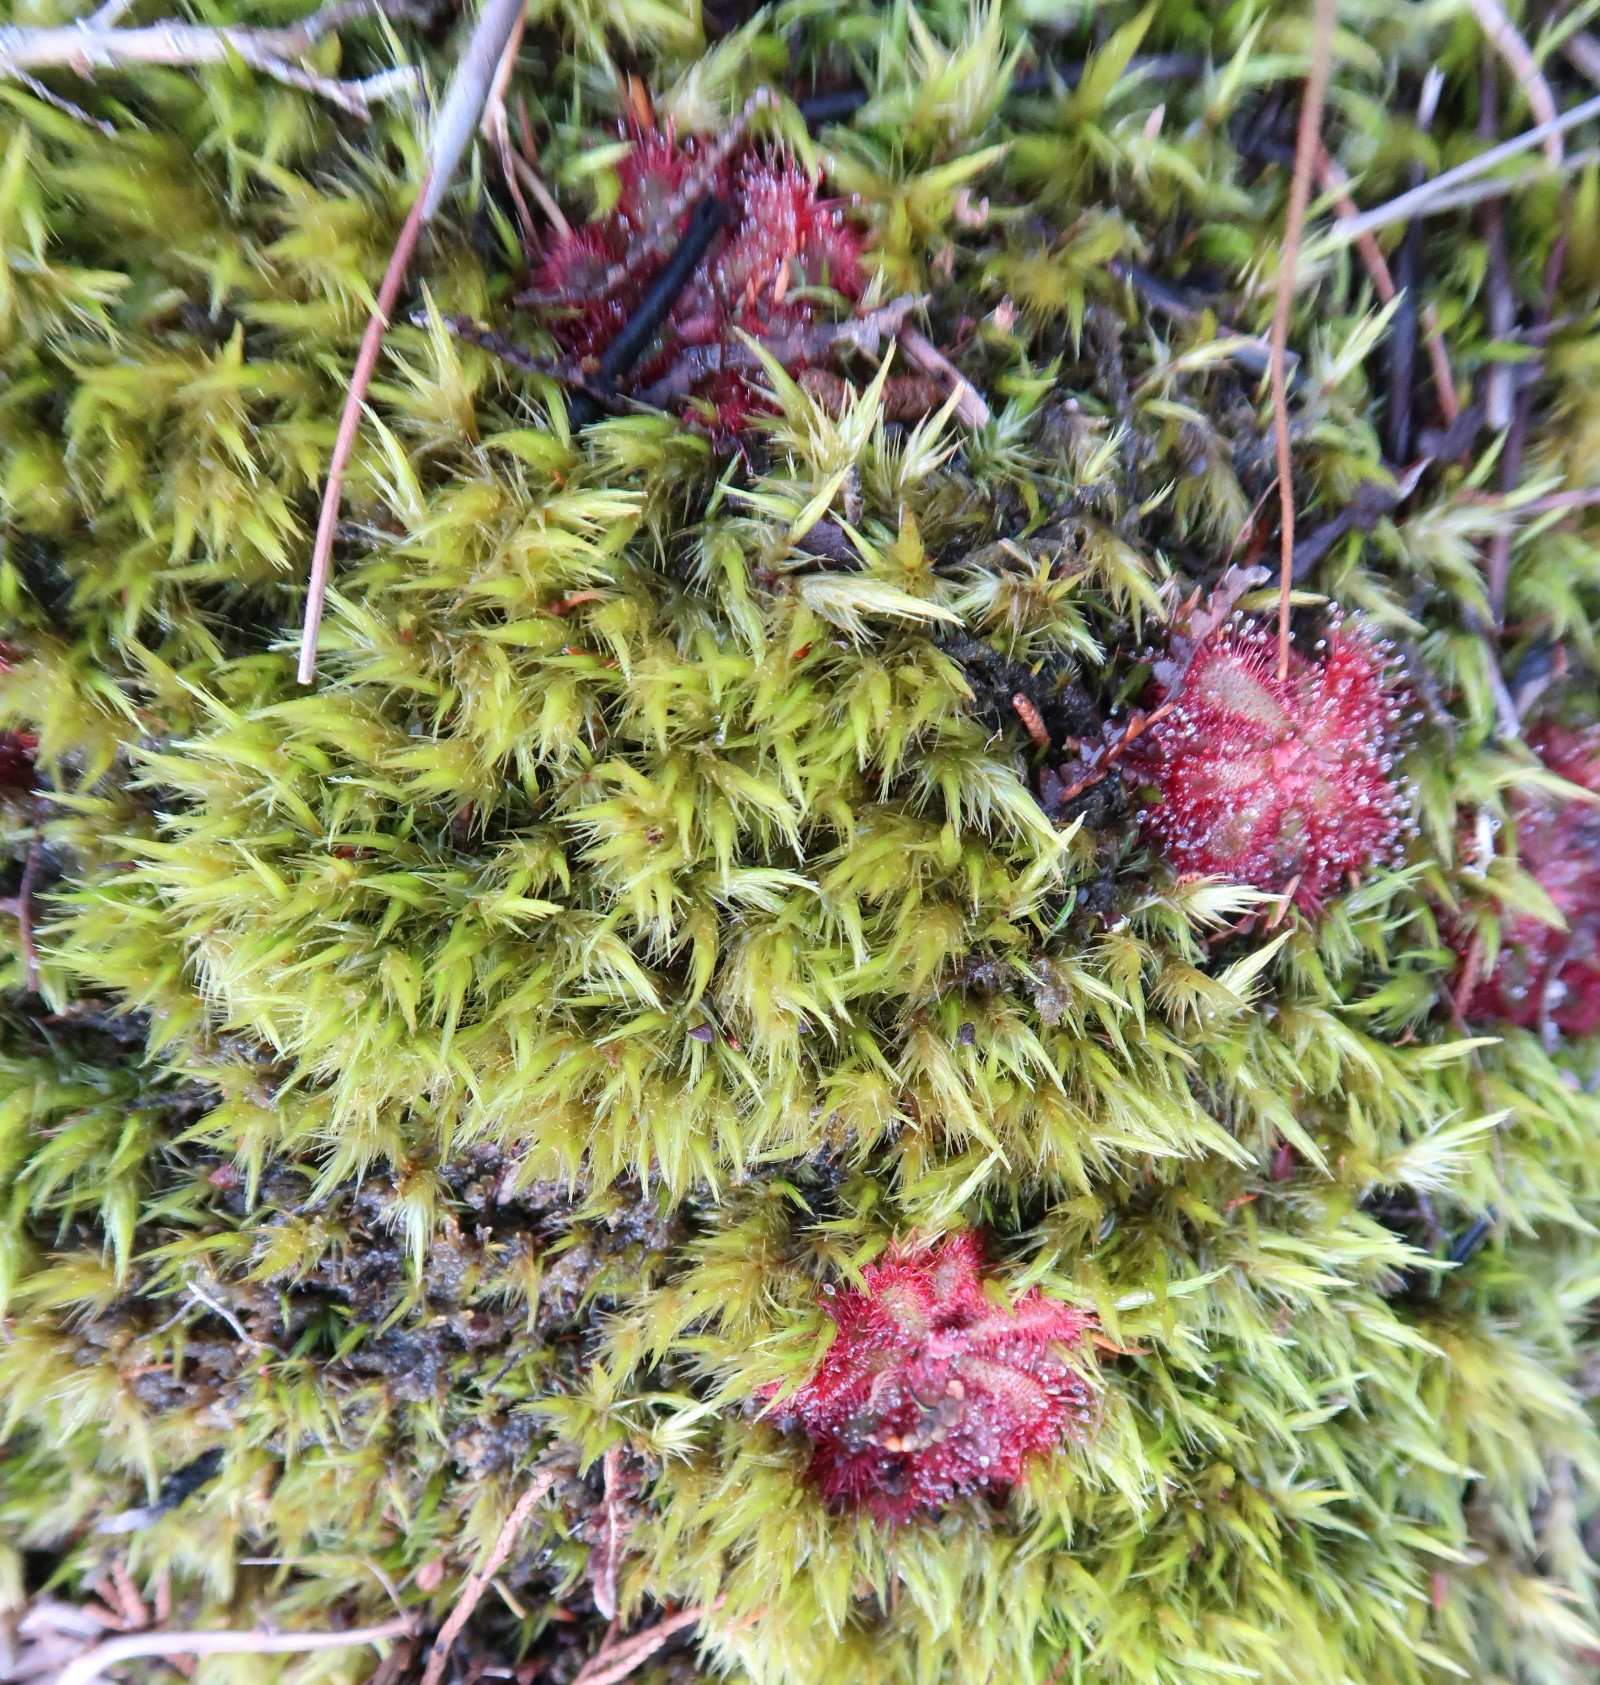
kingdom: Plantae
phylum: Tracheophyta
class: Magnoliopsida
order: Caryophyllales
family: Droseraceae
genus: Drosera
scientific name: Drosera aliciae
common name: Alice sundew
